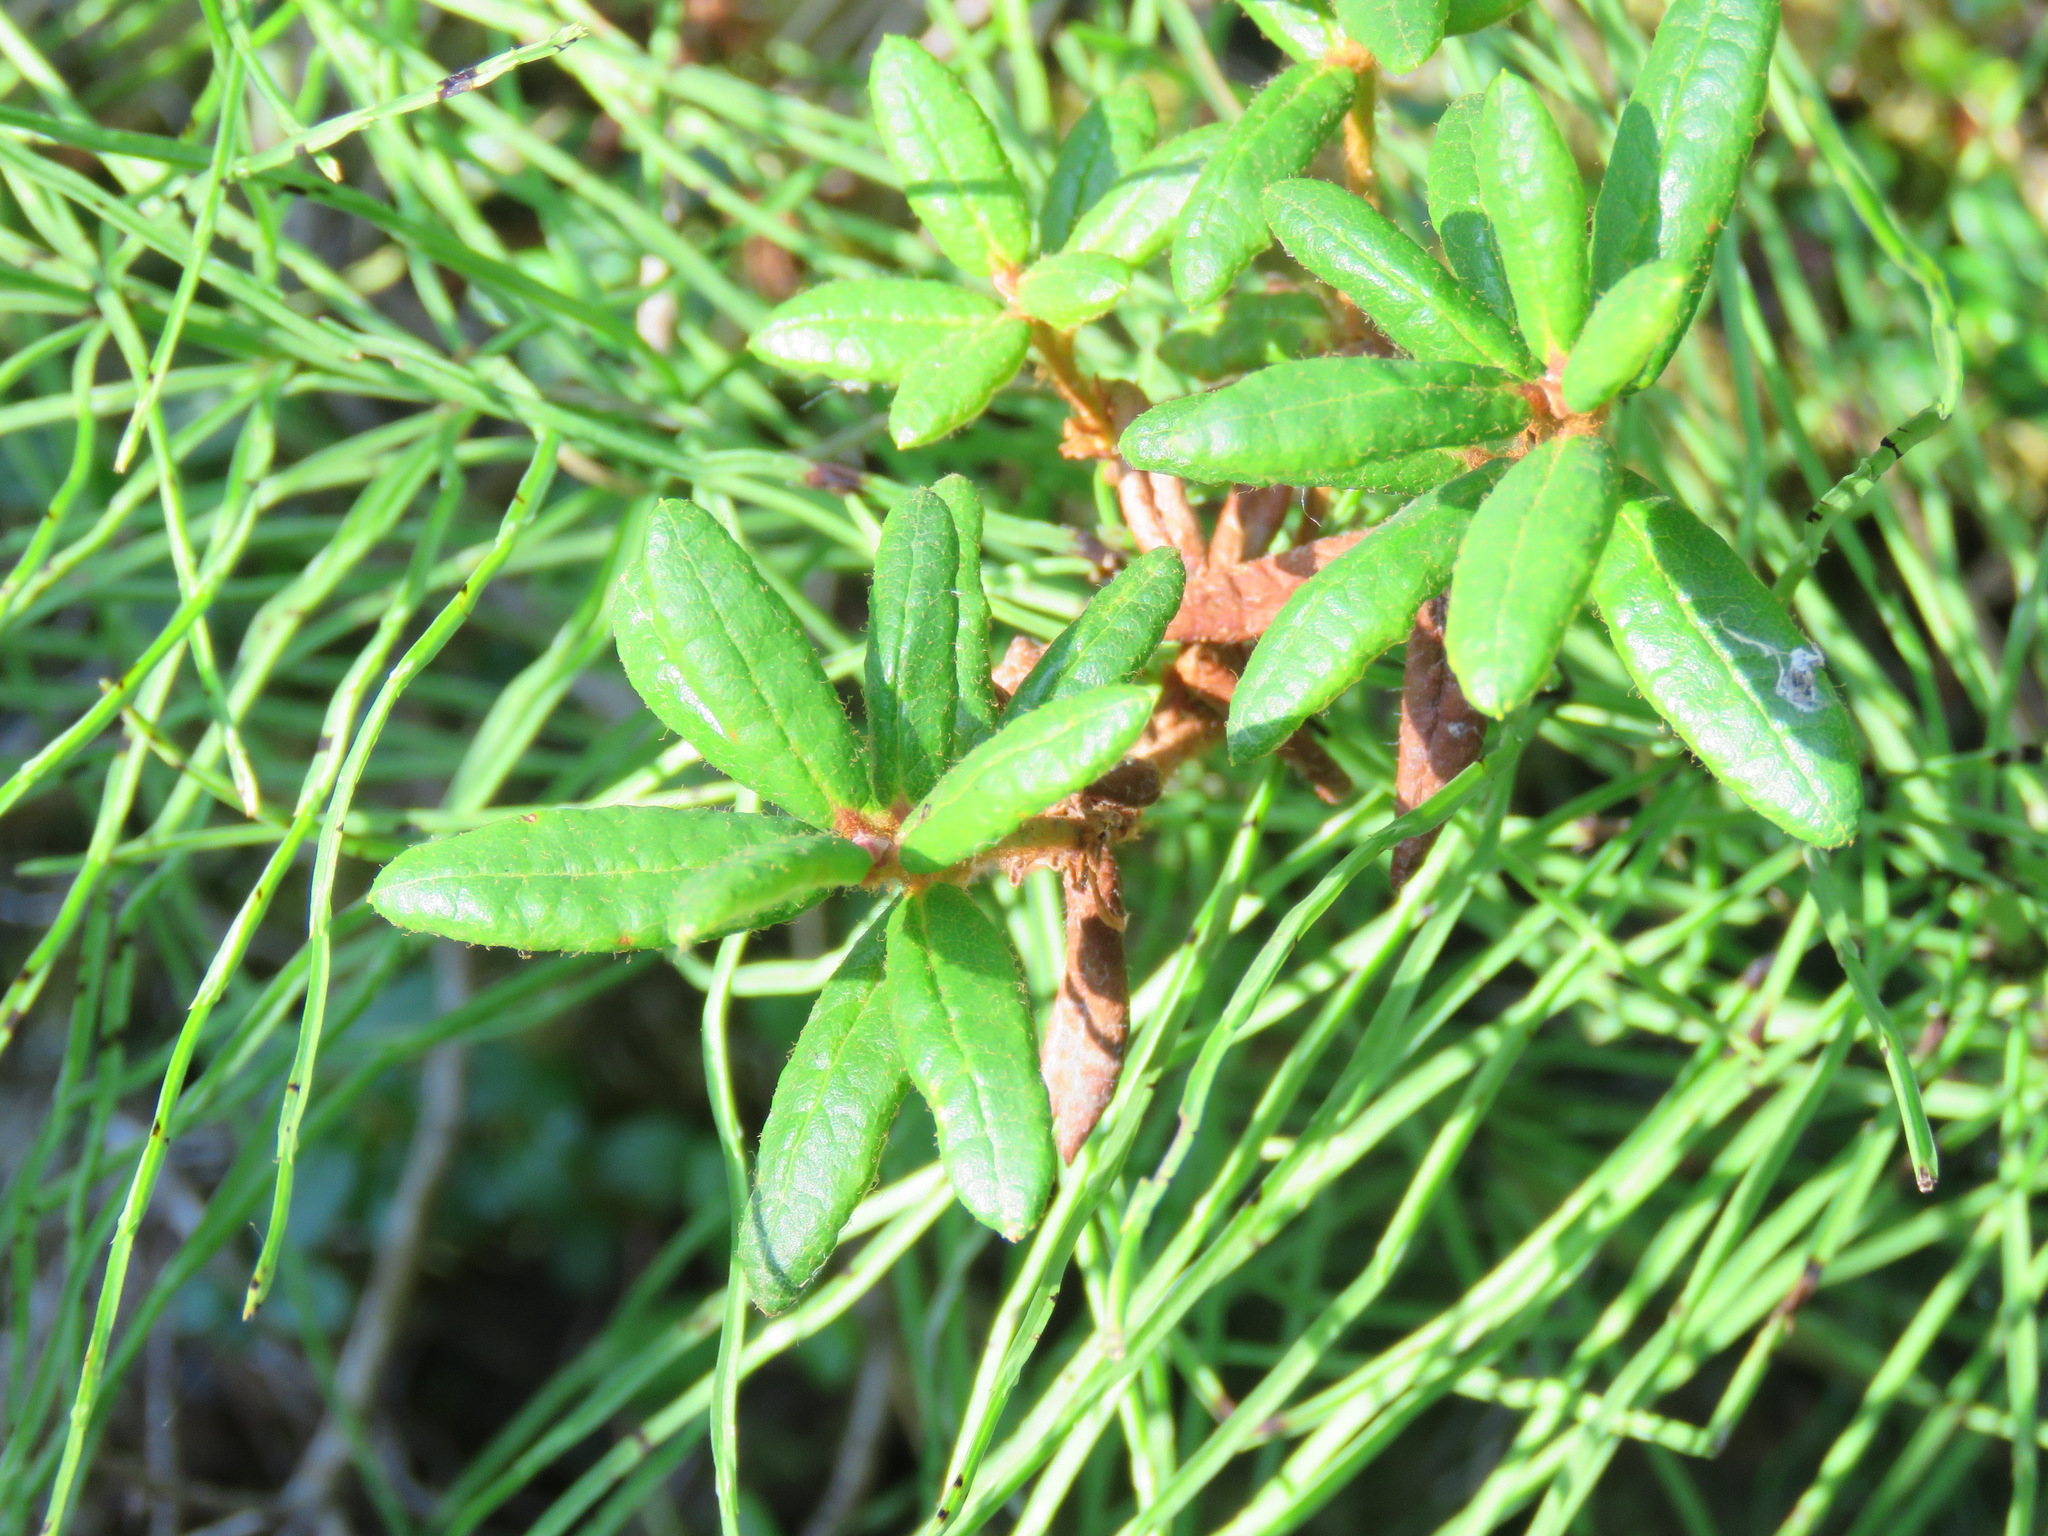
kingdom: Plantae
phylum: Tracheophyta
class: Magnoliopsida
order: Ericales
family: Ericaceae
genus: Rhododendron
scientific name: Rhododendron groenlandicum
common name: Bog labrador tea
